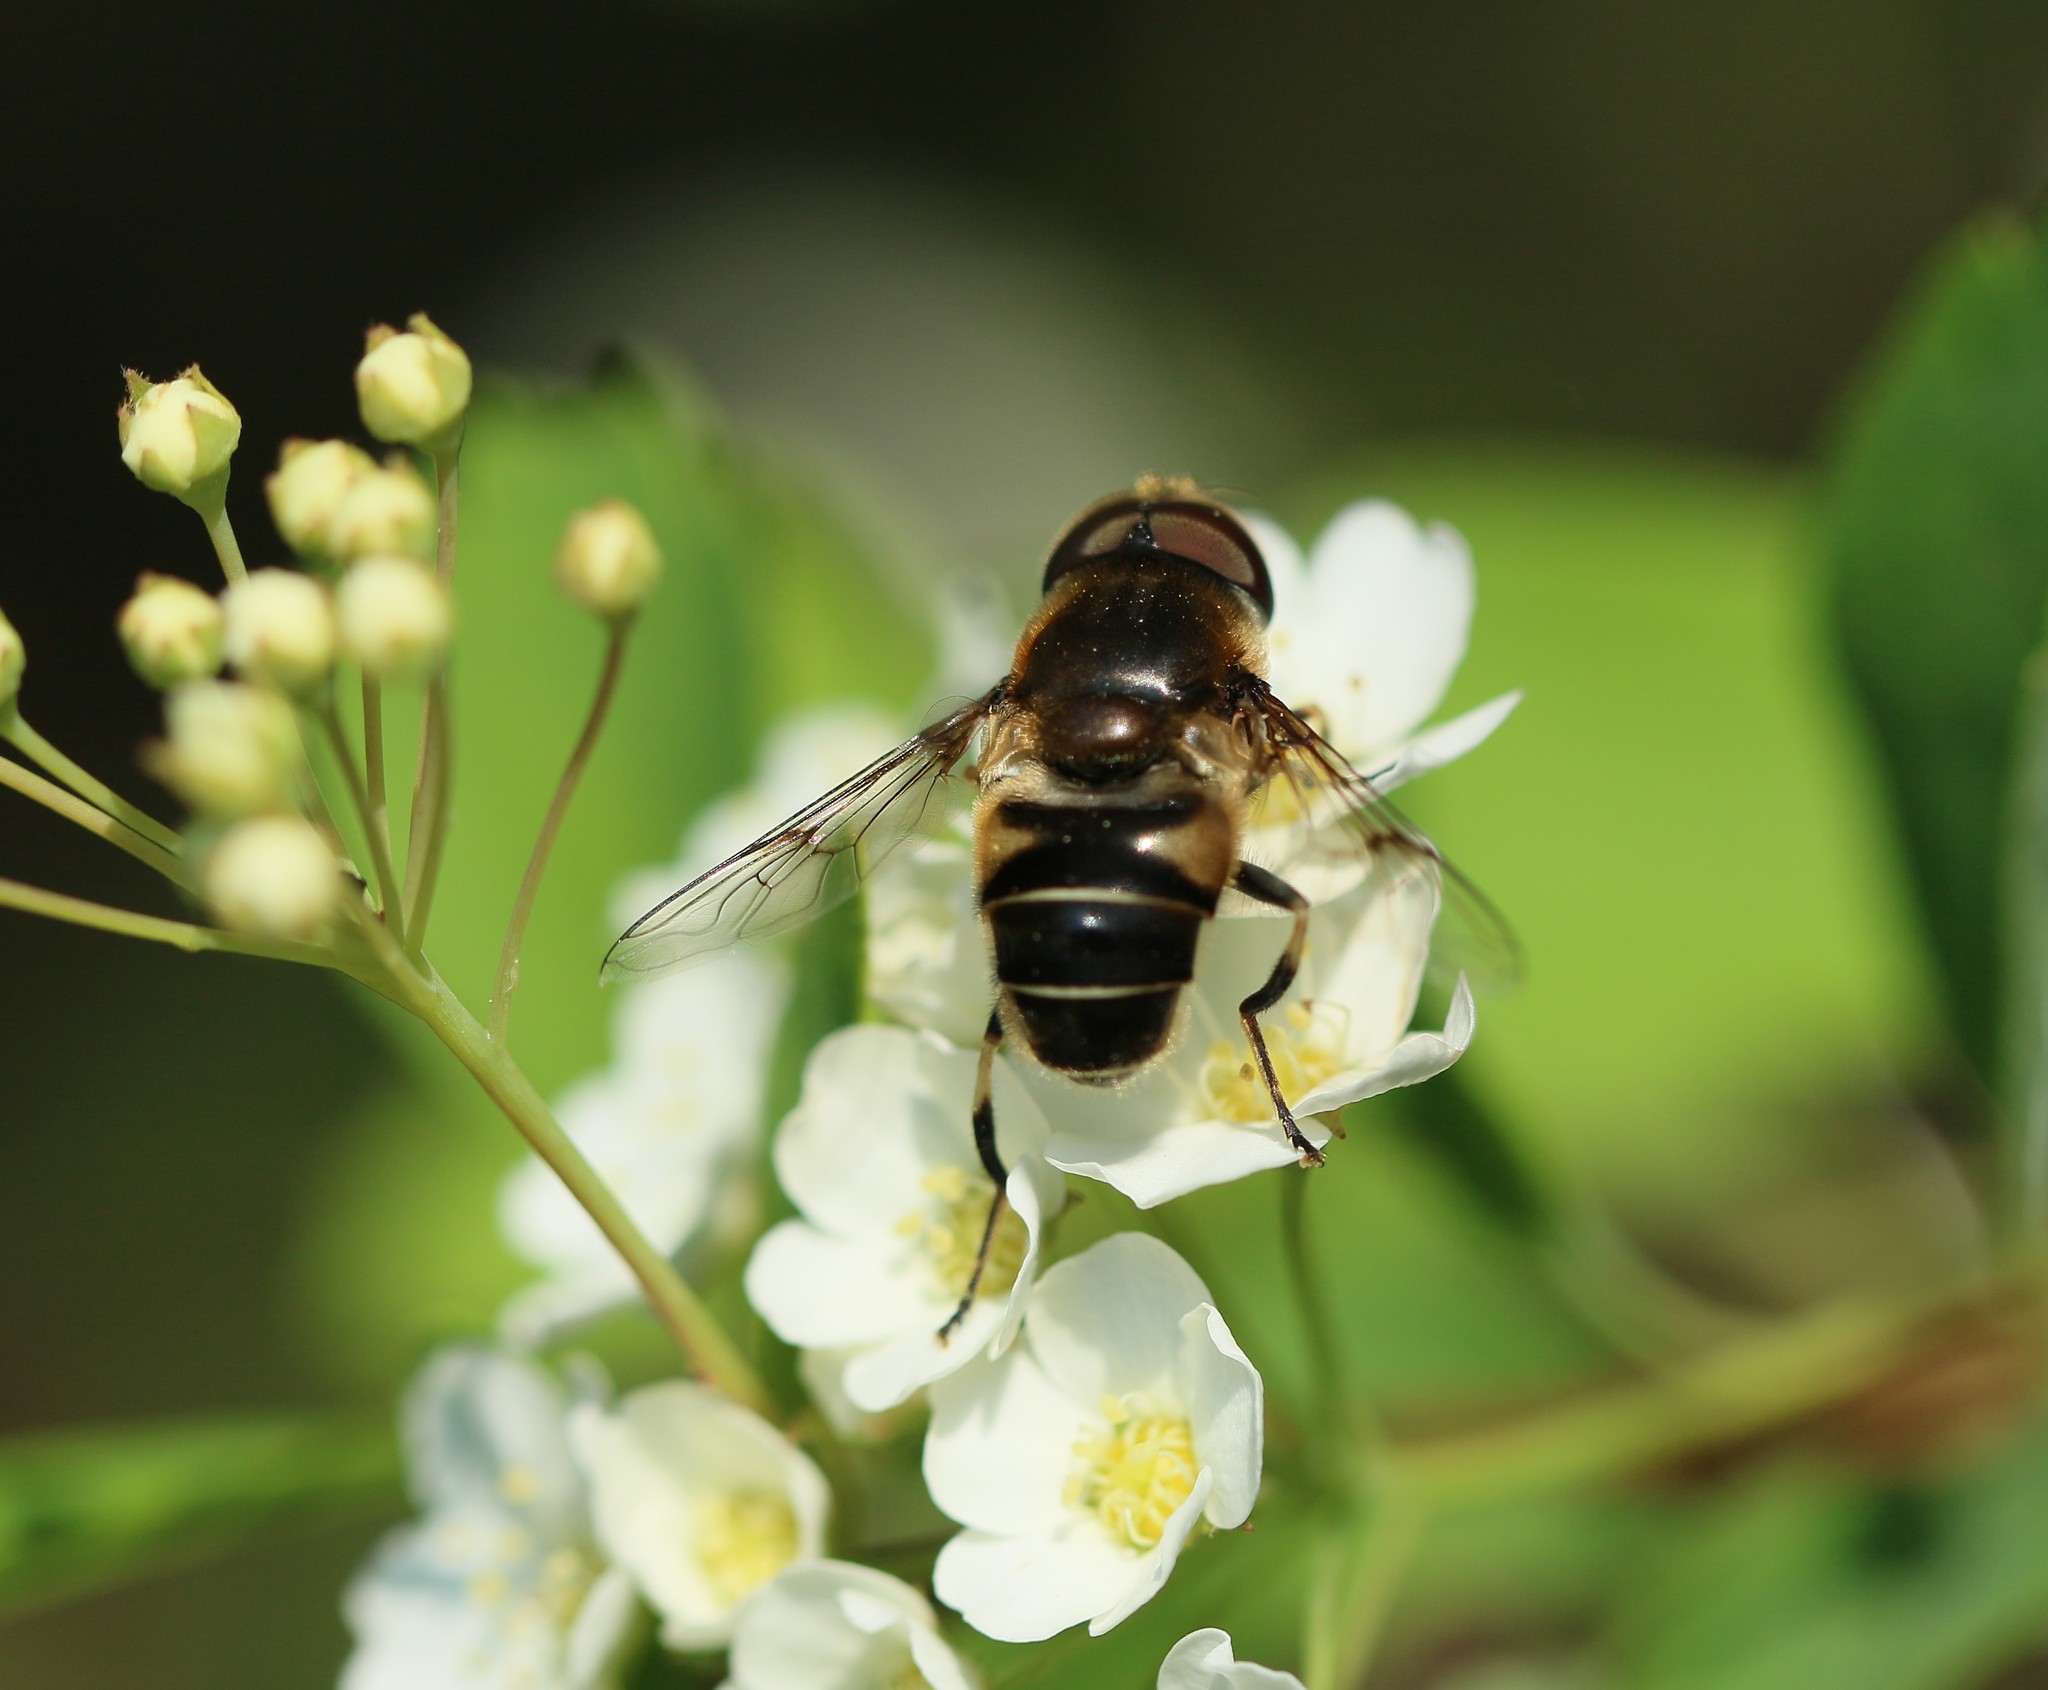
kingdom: Animalia
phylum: Arthropoda
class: Insecta
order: Diptera
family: Syrphidae
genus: Eristalis
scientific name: Eristalis nemorum
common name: Orange-spined drone fly
